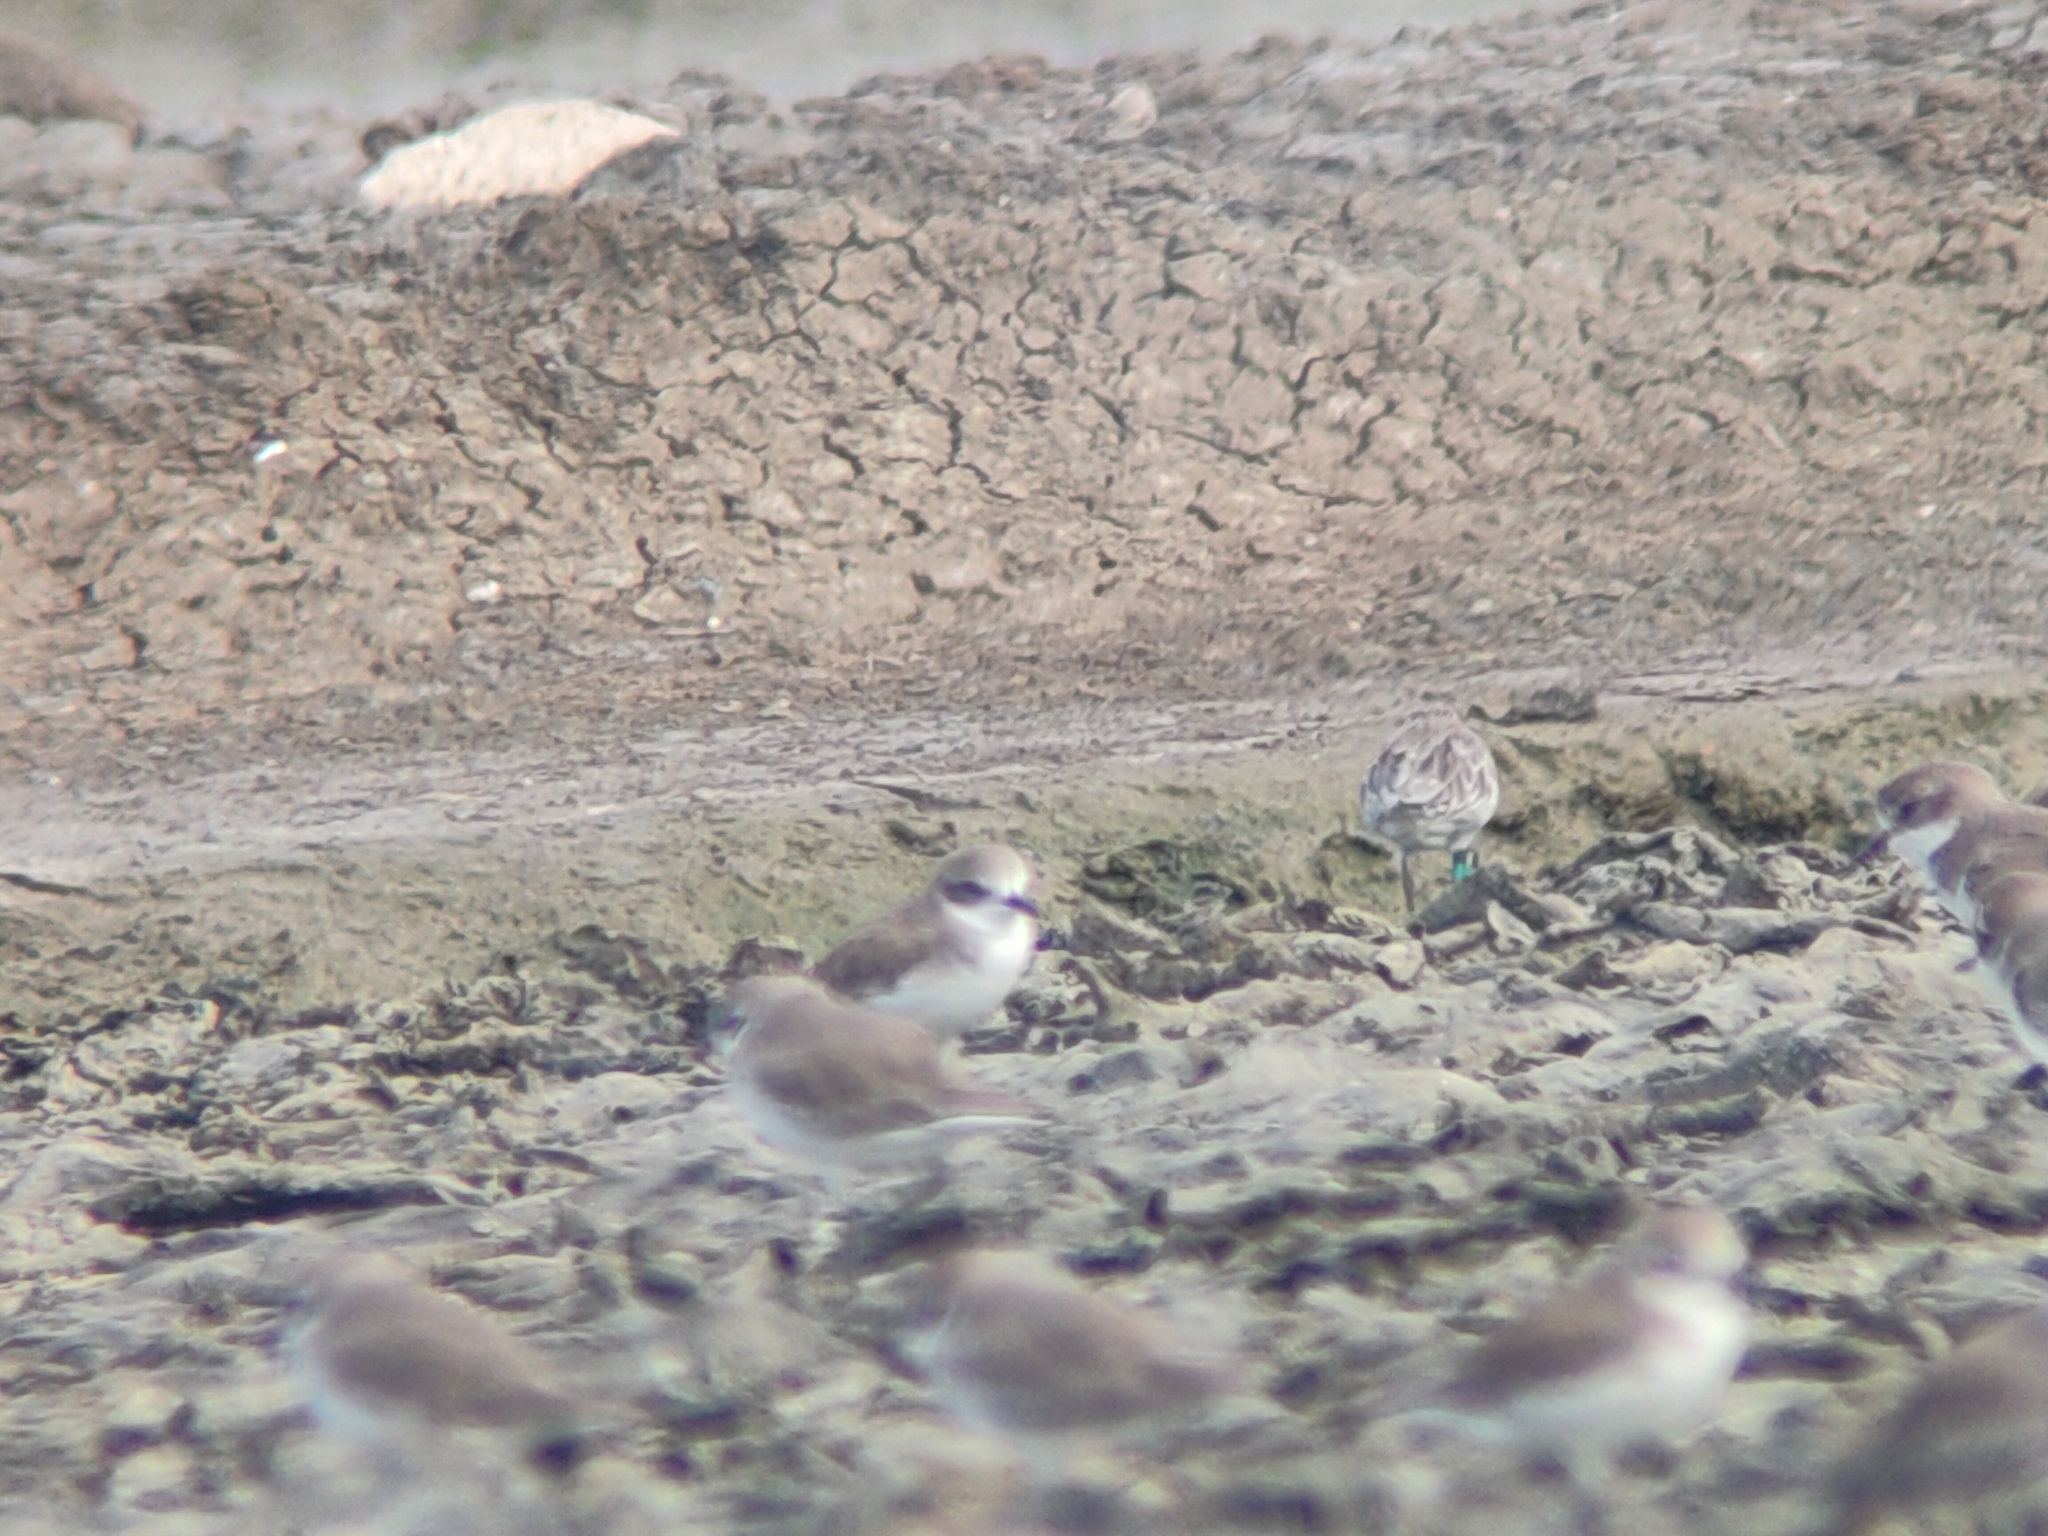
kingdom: Animalia
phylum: Chordata
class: Aves
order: Charadriiformes
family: Charadriidae
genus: Anarhynchus
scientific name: Anarhynchus
